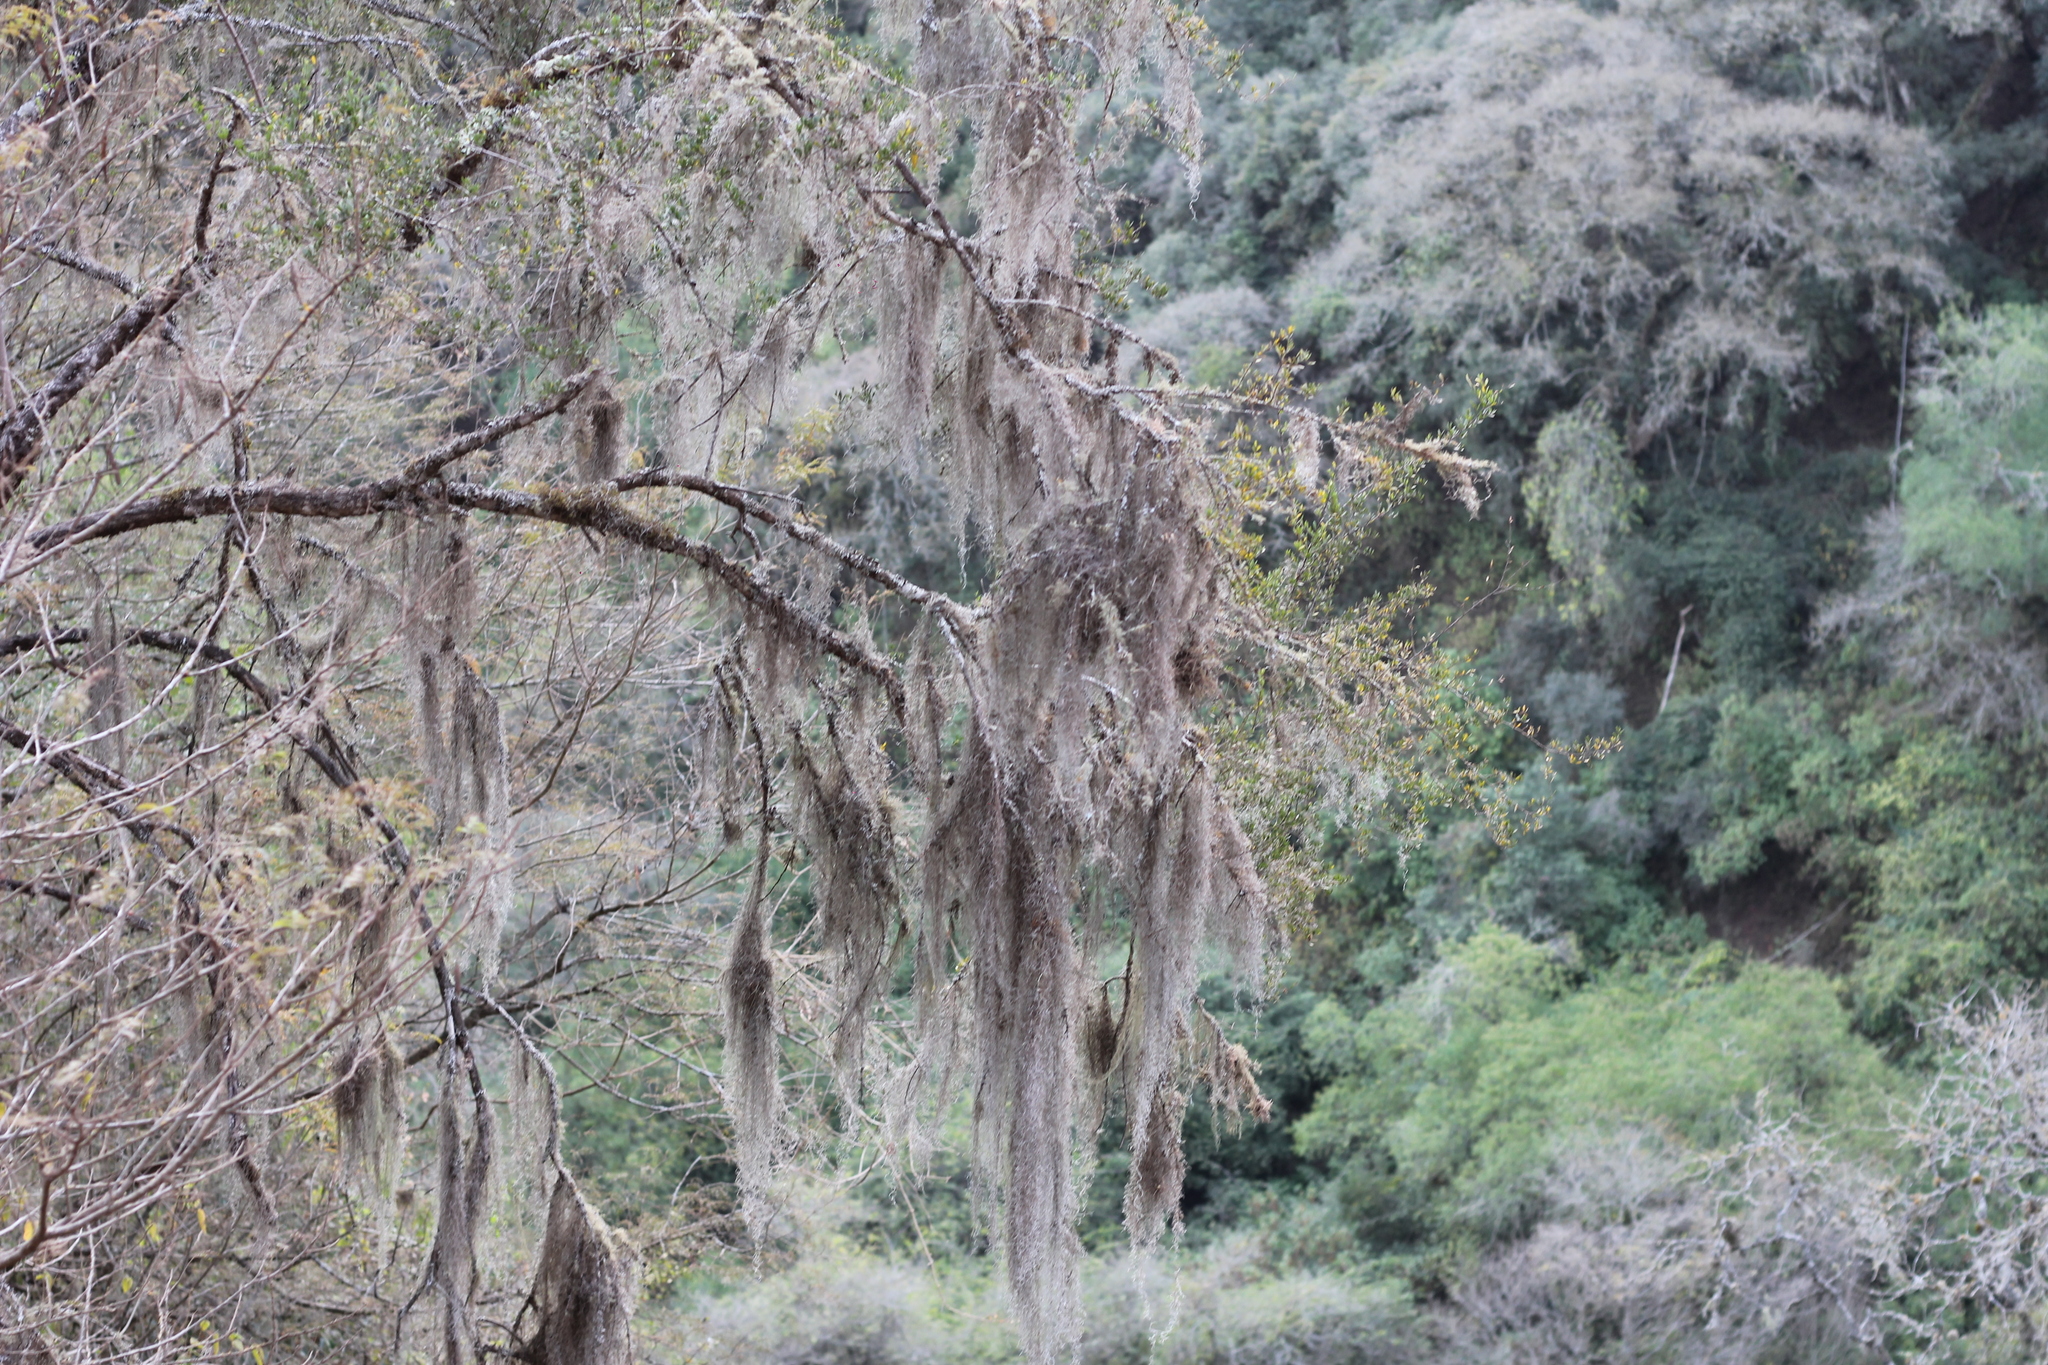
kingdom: Plantae
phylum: Tracheophyta
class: Liliopsida
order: Poales
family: Bromeliaceae
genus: Tillandsia
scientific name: Tillandsia usneoides
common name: Spanish moss
